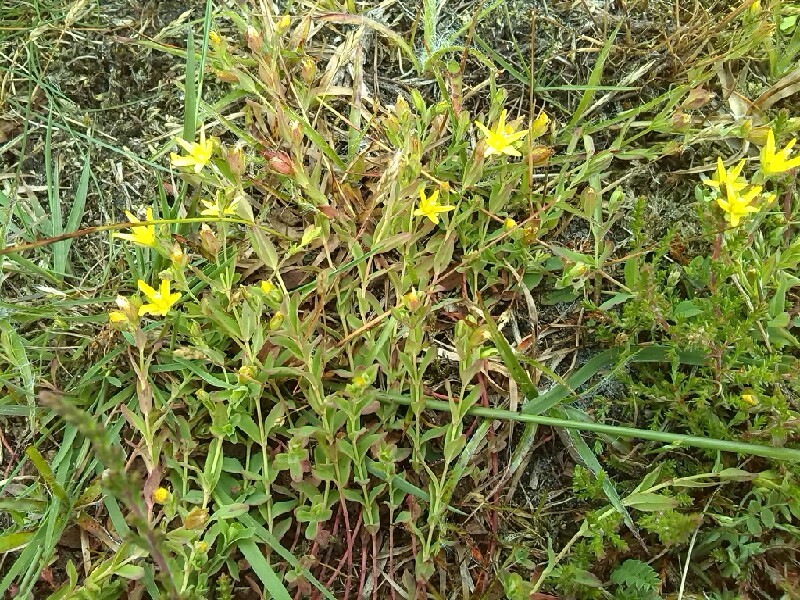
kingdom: Plantae
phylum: Tracheophyta
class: Magnoliopsida
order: Malpighiales
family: Hypericaceae
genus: Hypericum
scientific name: Hypericum humifusum
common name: Trailing st. john's-wort
